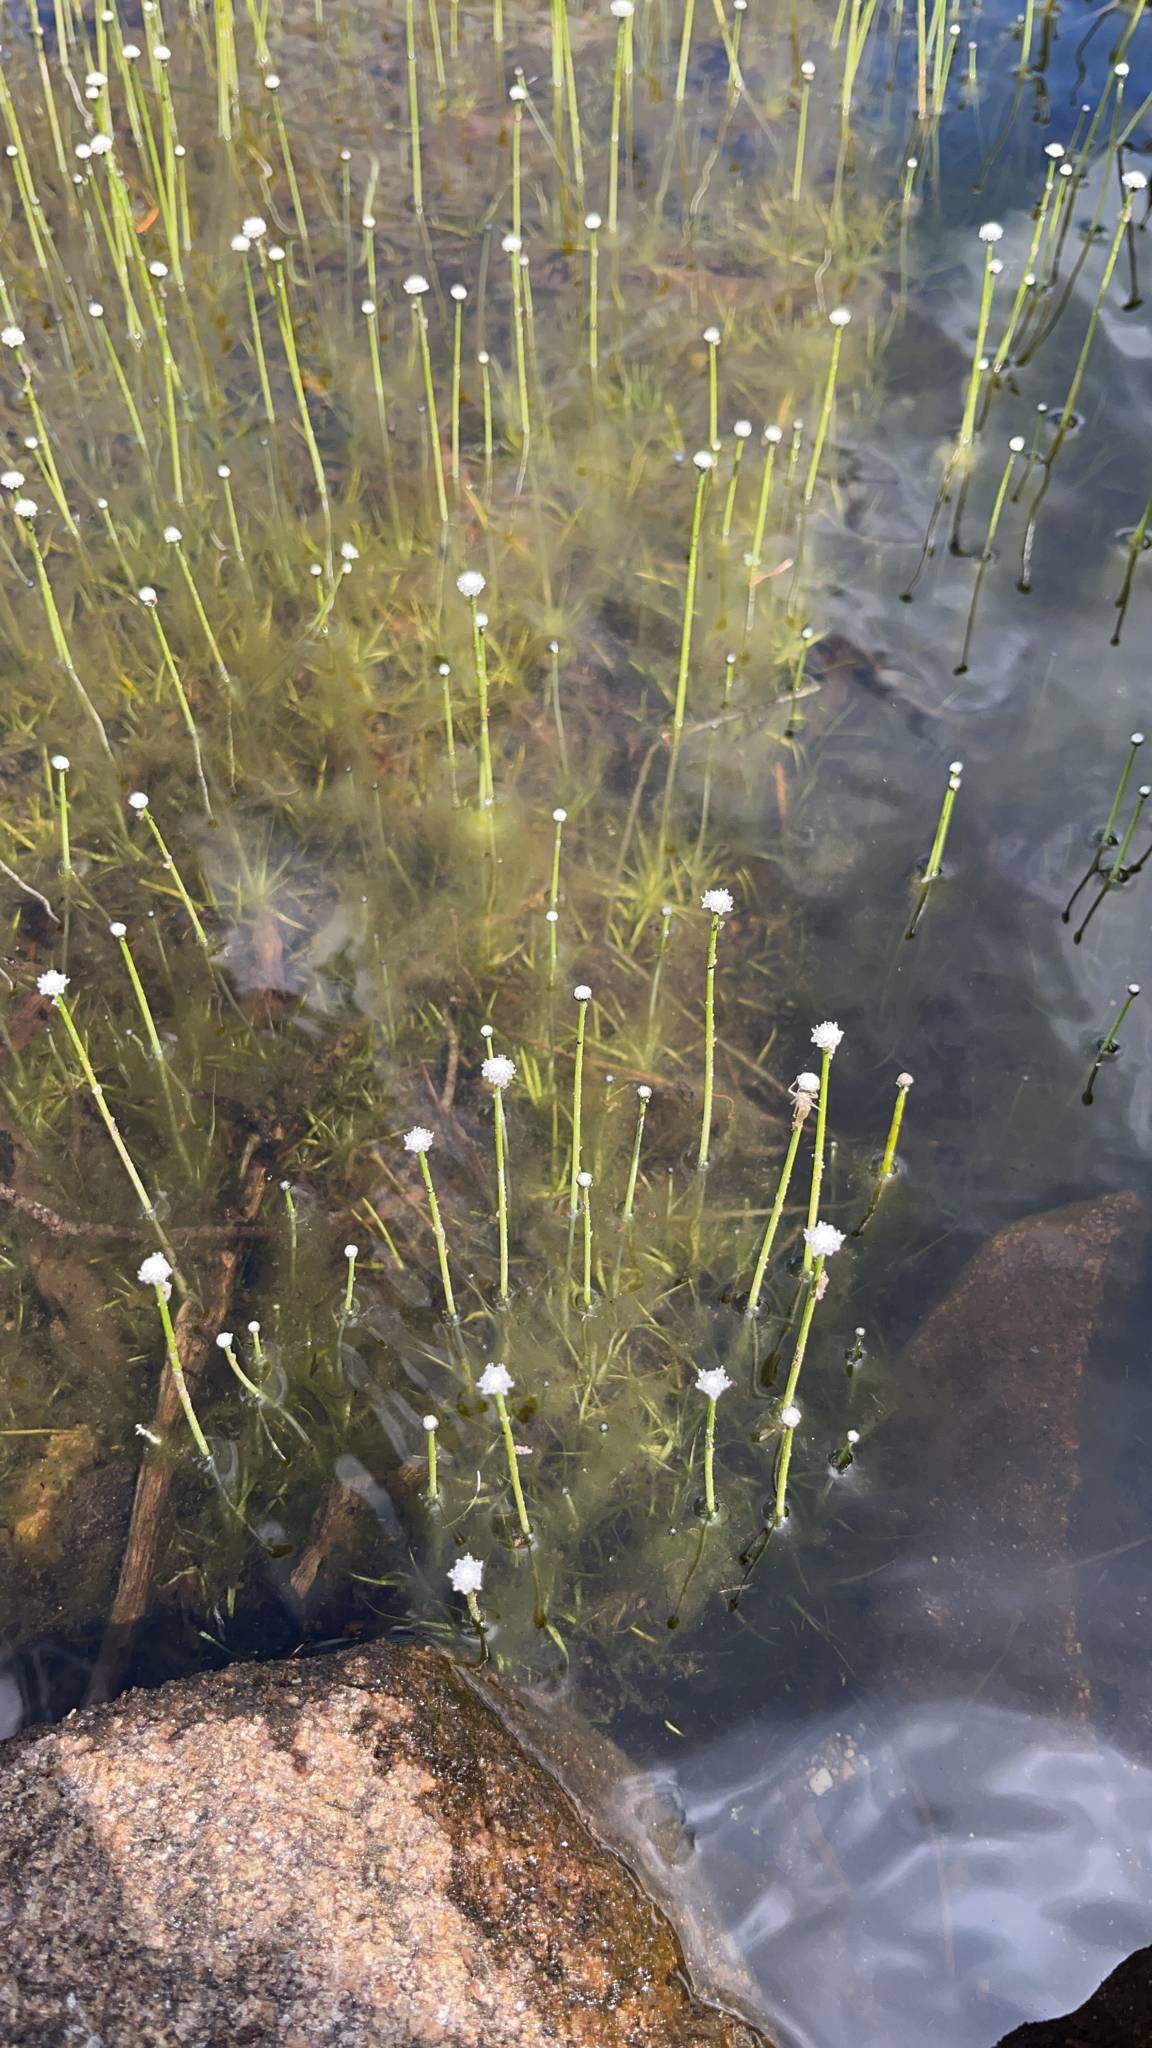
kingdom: Plantae
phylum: Tracheophyta
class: Liliopsida
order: Poales
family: Eriocaulaceae
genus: Eriocaulon
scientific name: Eriocaulon aquaticum
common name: Pipewort
